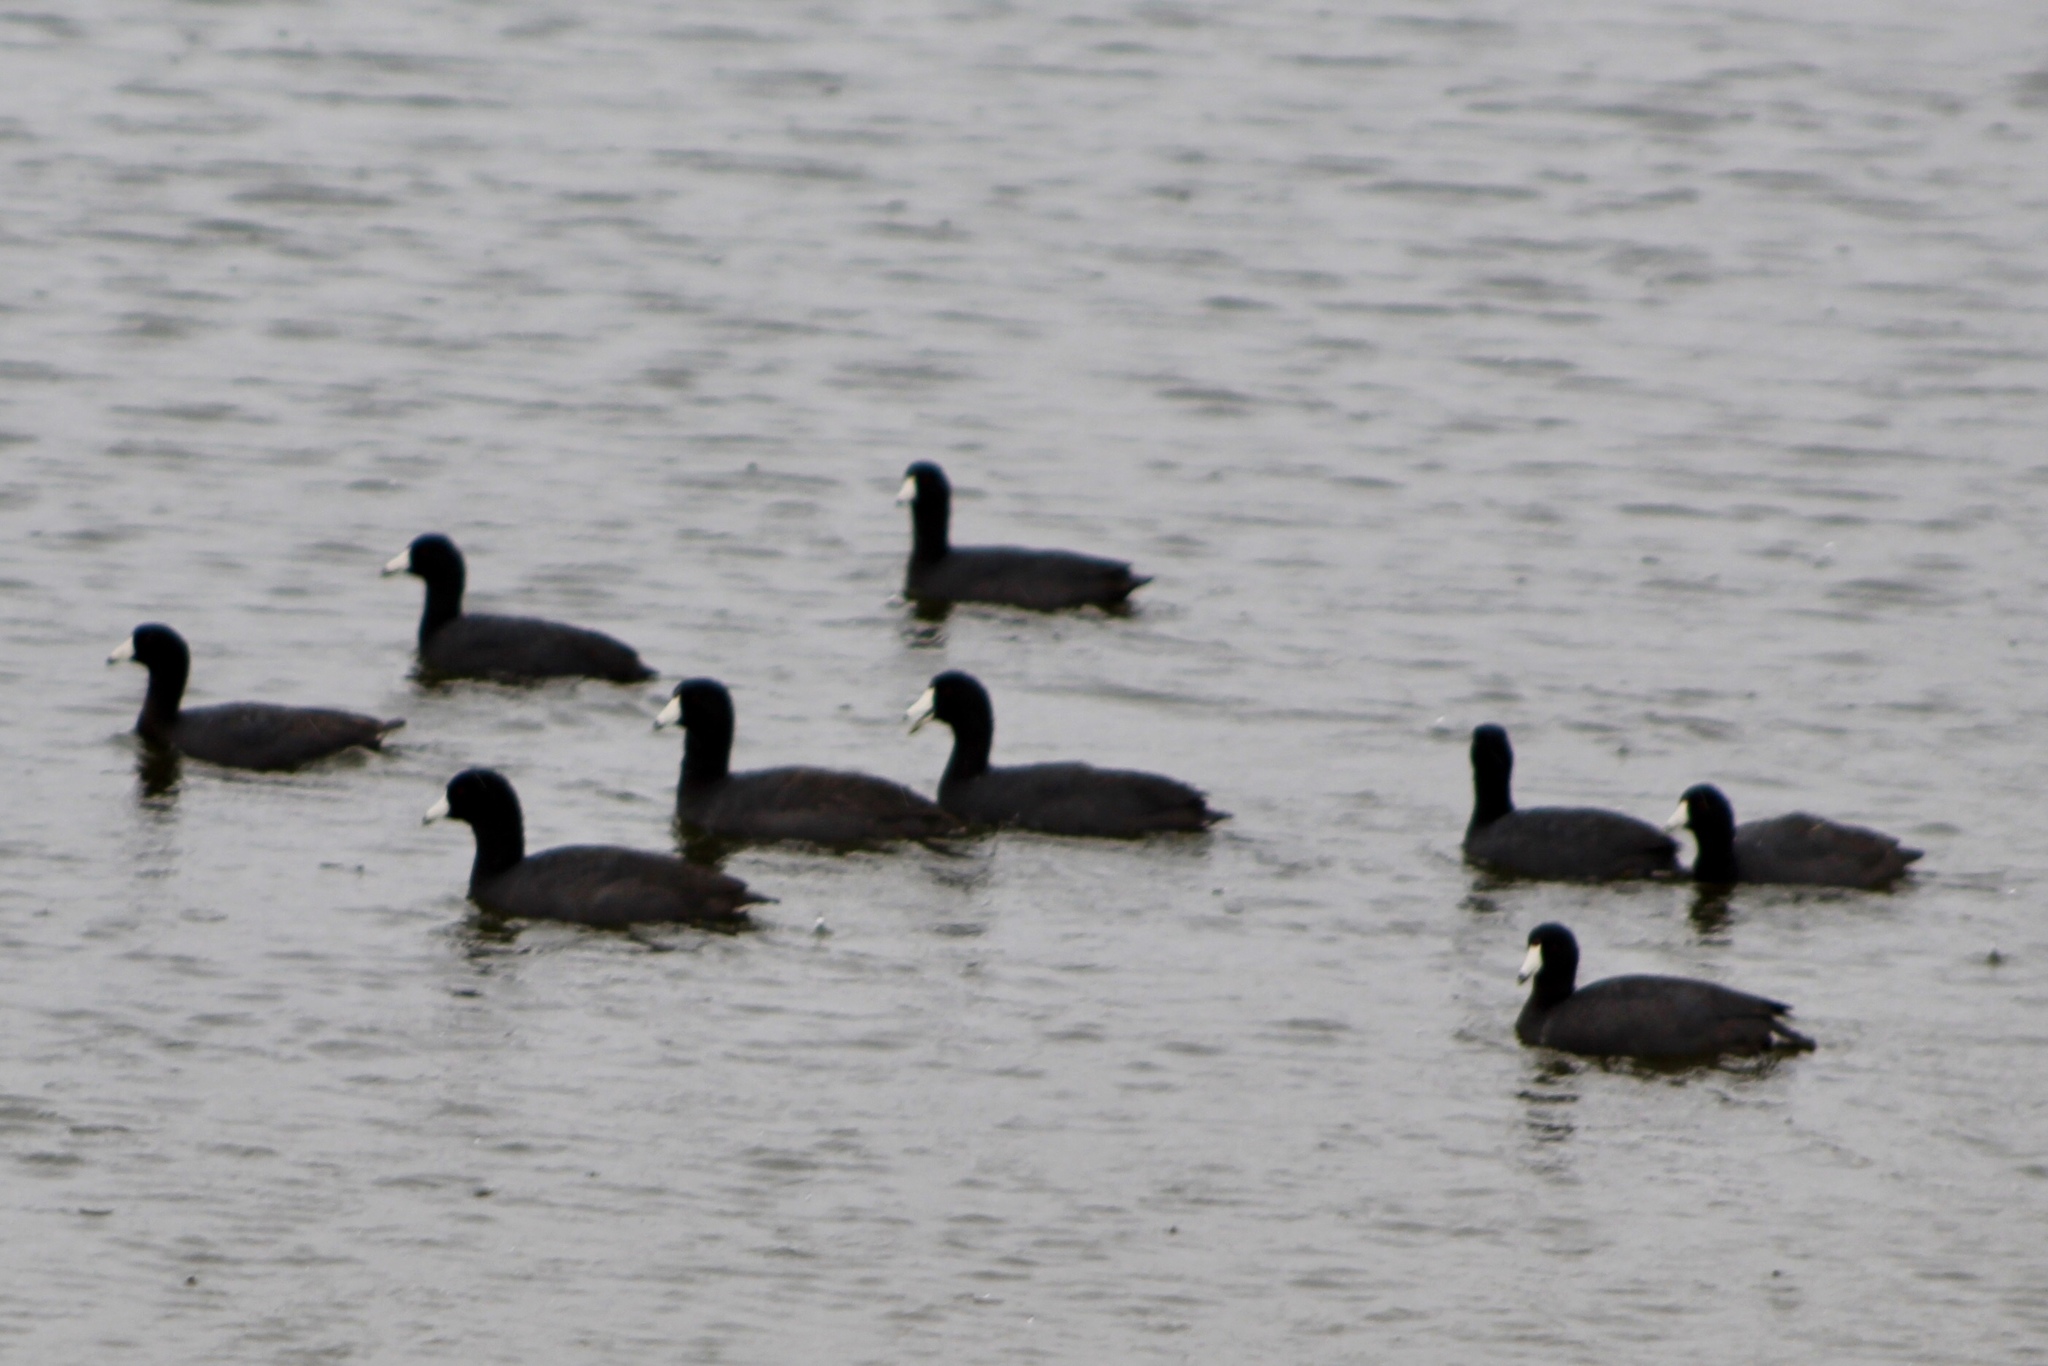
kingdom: Animalia
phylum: Chordata
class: Aves
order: Gruiformes
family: Rallidae
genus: Fulica
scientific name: Fulica americana
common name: American coot
